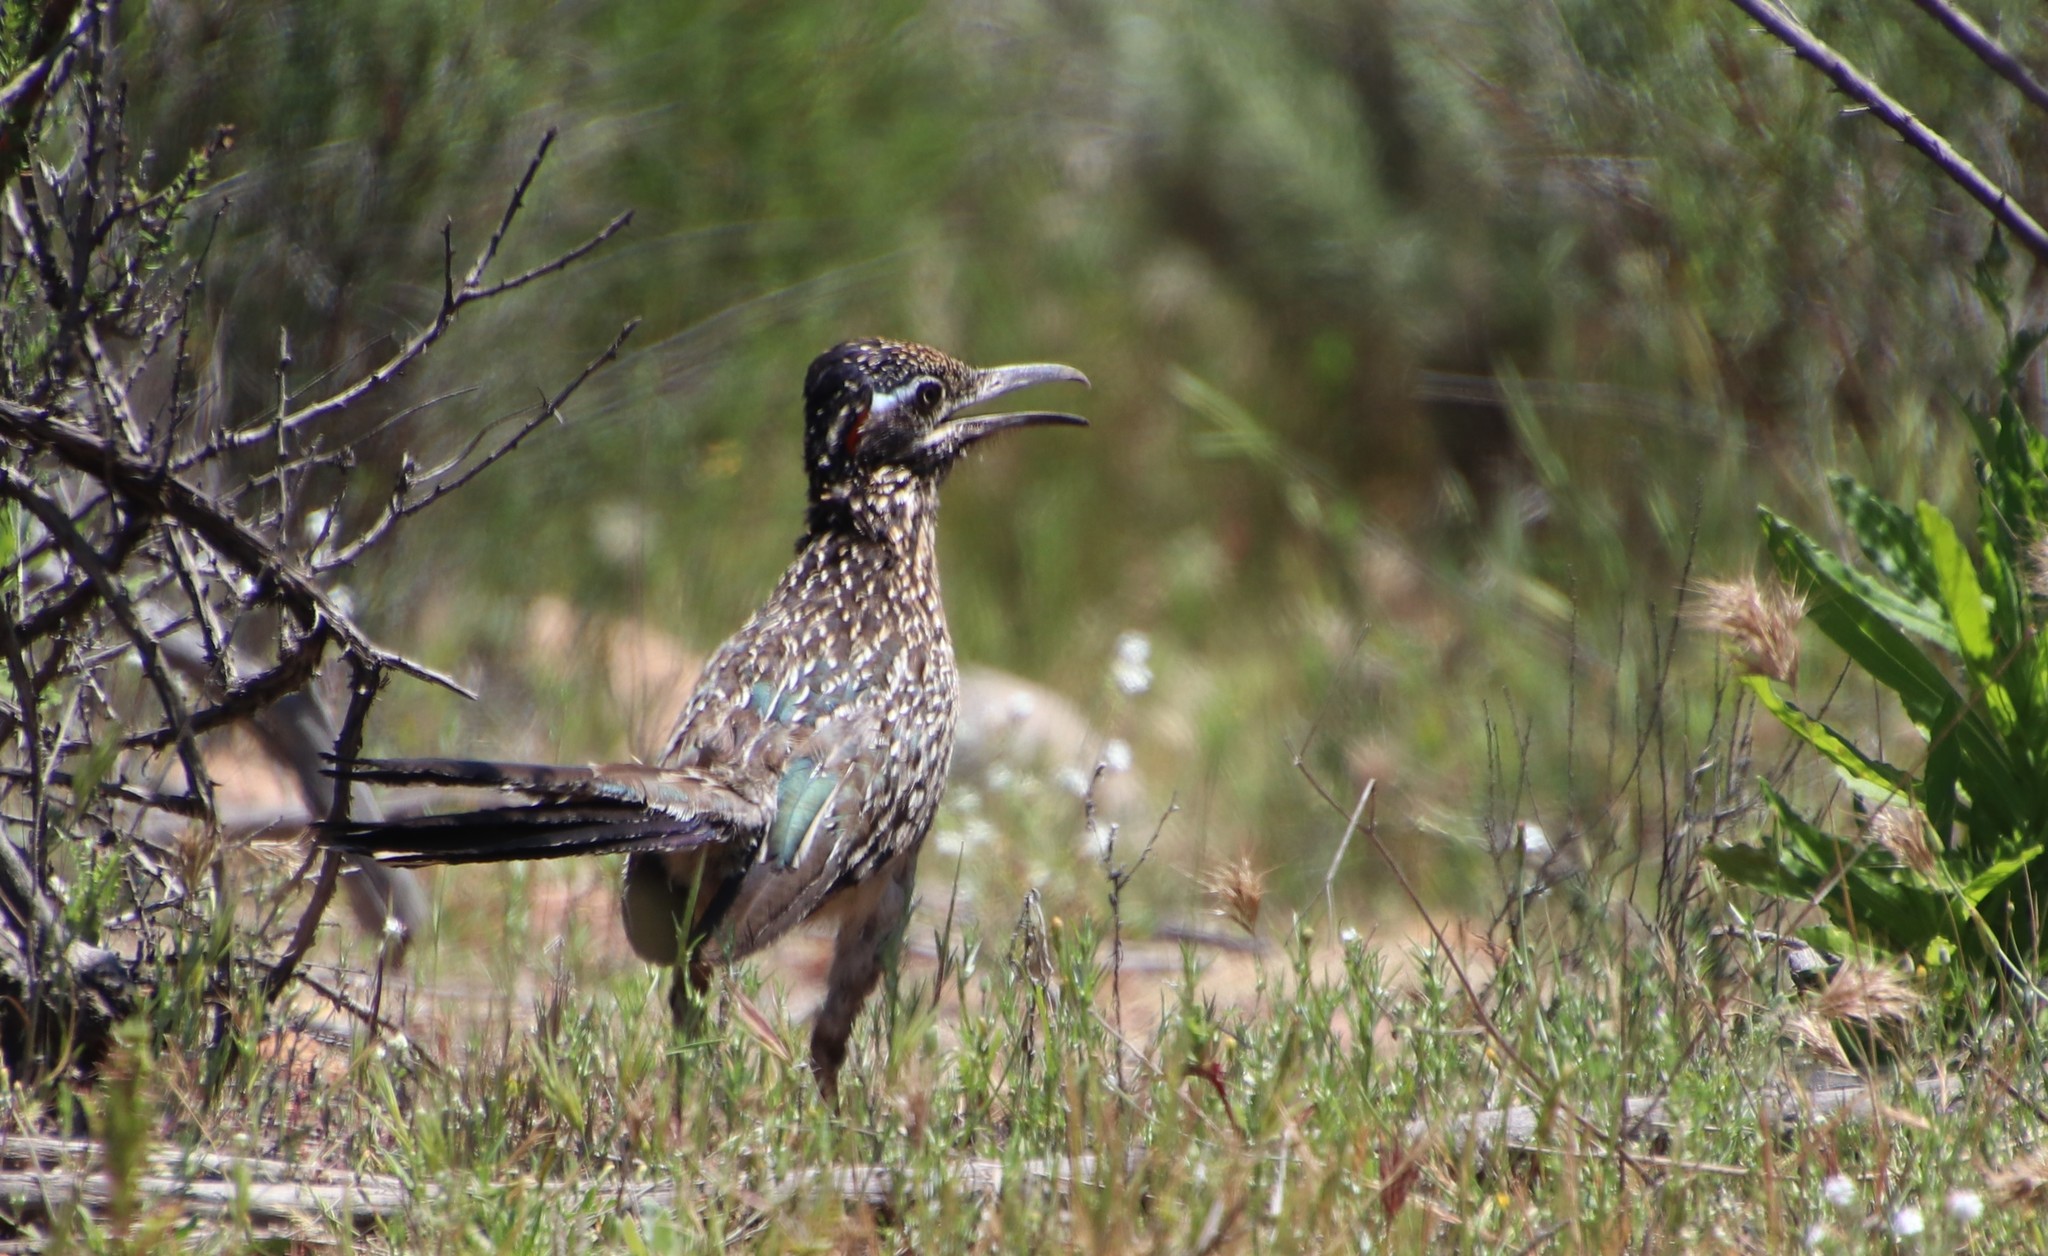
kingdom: Animalia
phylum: Chordata
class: Aves
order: Cuculiformes
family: Cuculidae
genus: Geococcyx
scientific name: Geococcyx californianus
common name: Greater roadrunner
